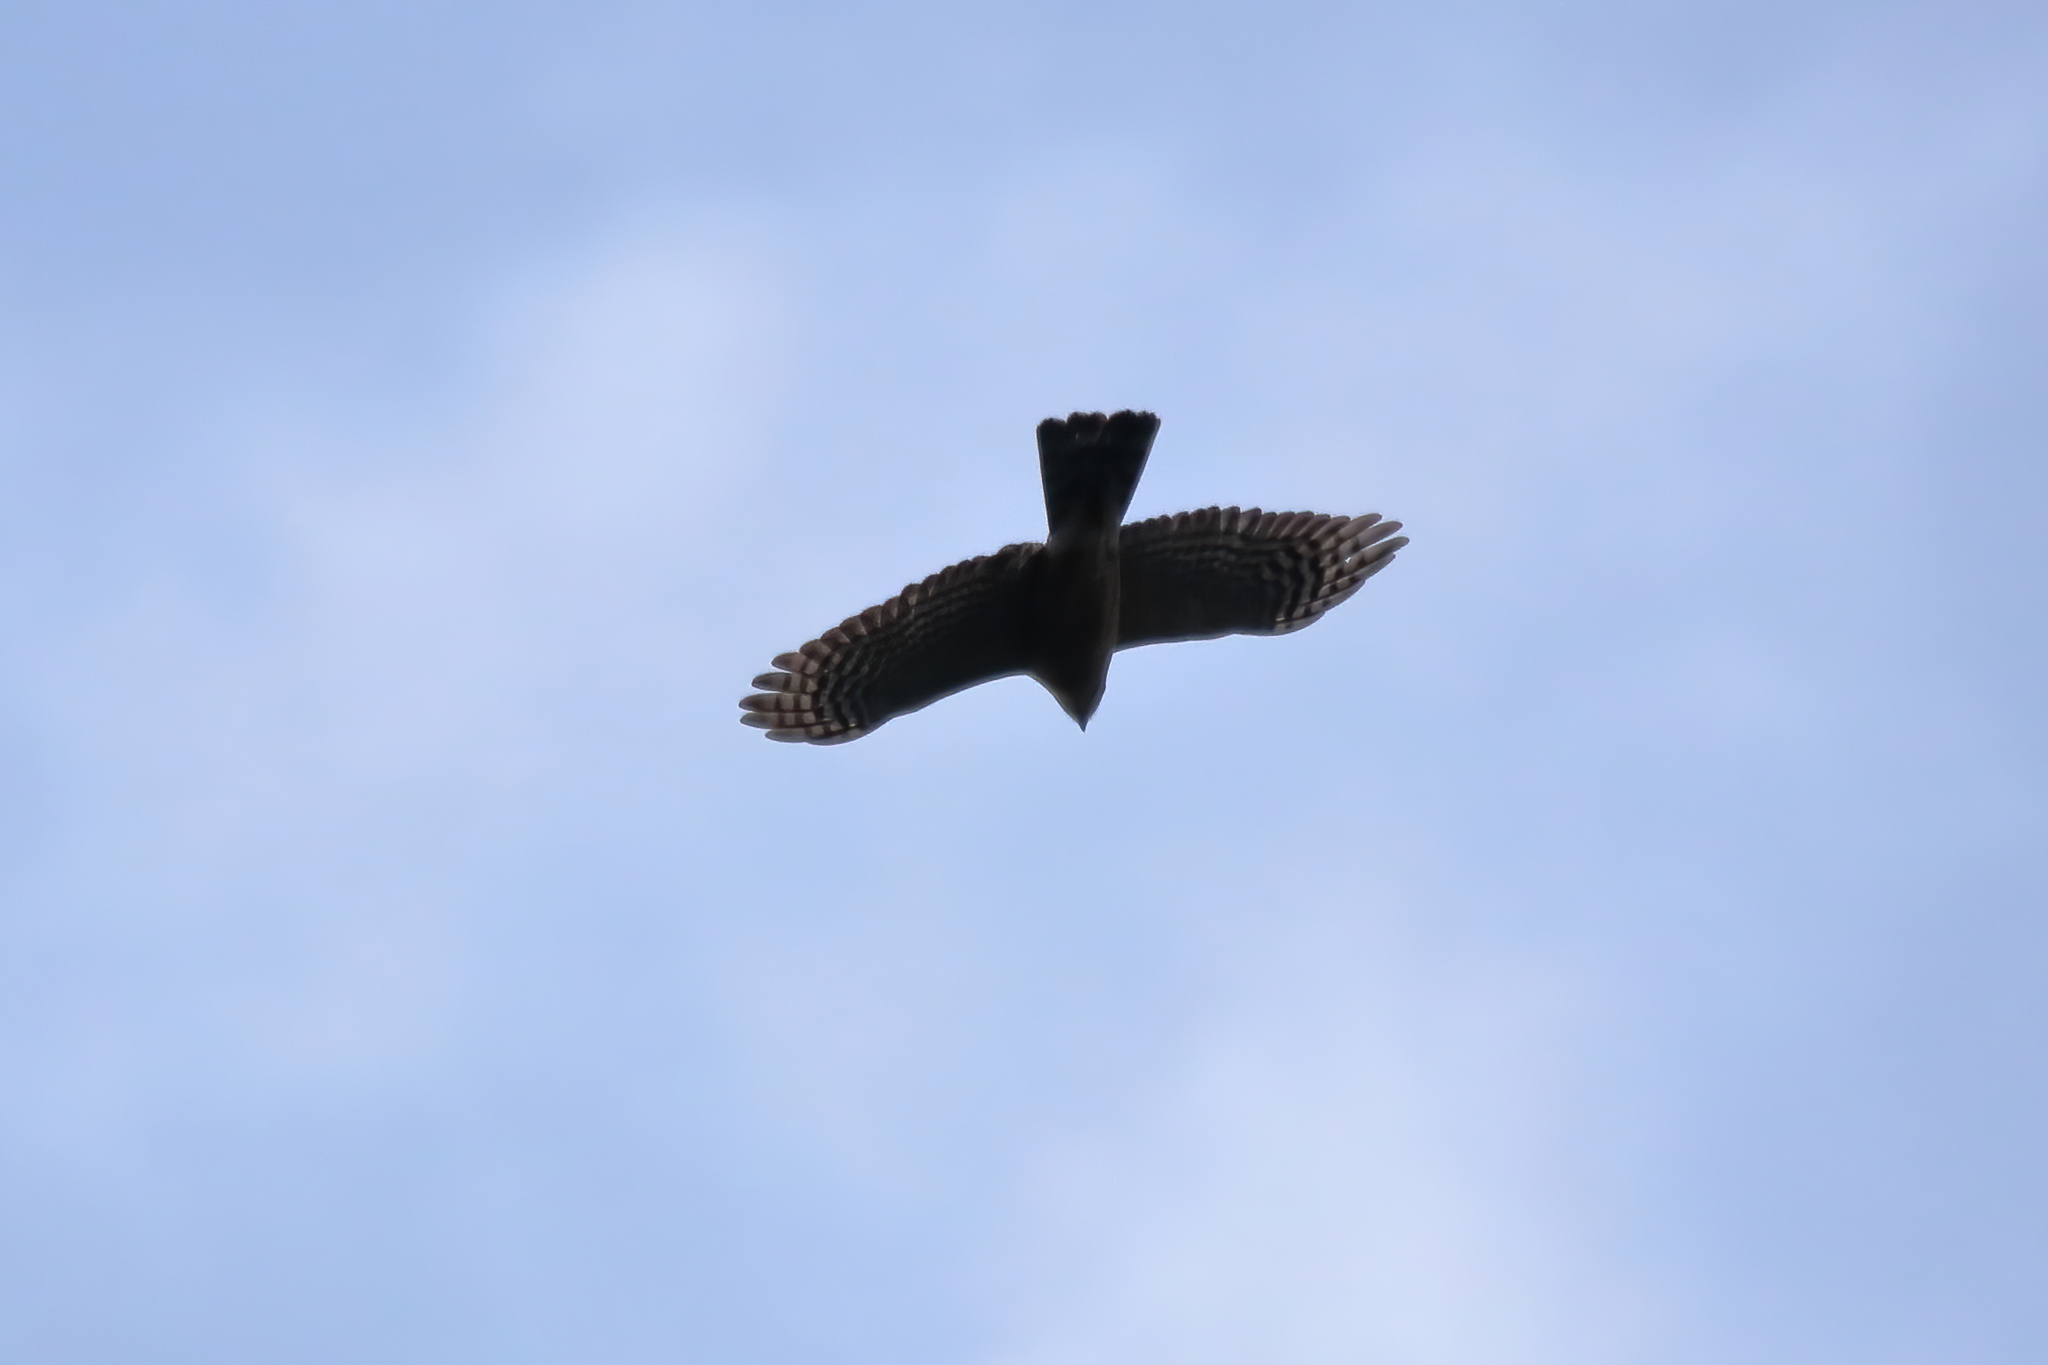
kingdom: Animalia
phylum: Chordata
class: Aves
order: Accipitriformes
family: Accipitridae
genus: Accipiter
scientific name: Accipiter striatus
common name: Sharp-shinned hawk
